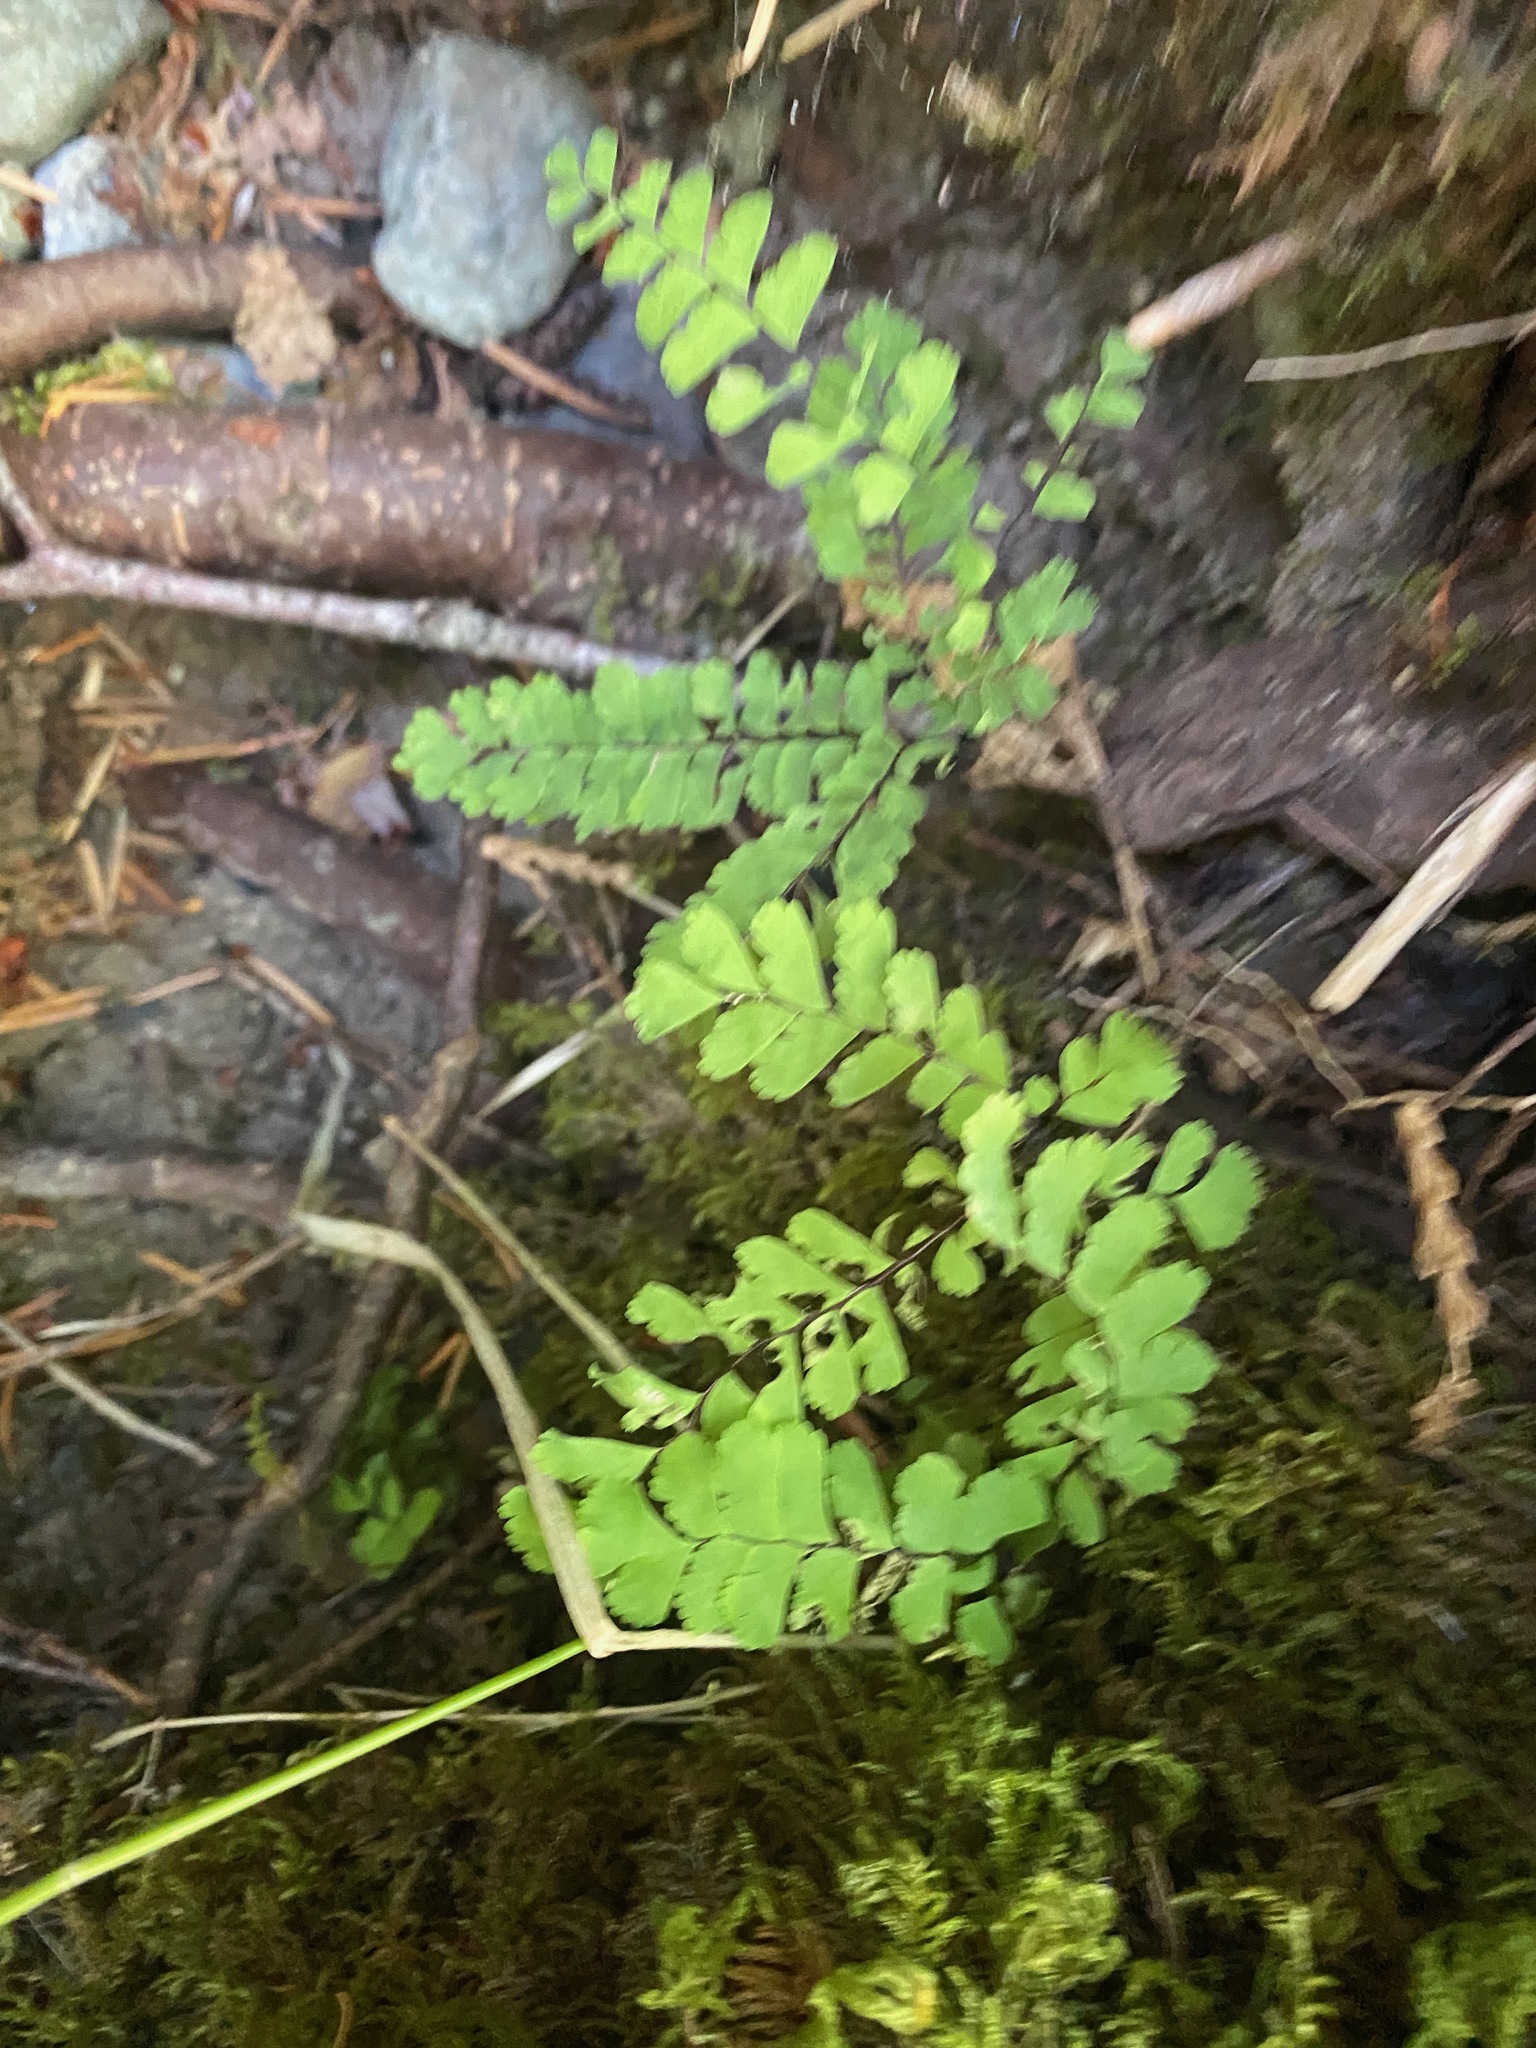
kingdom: Plantae
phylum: Tracheophyta
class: Polypodiopsida
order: Polypodiales
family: Pteridaceae
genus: Adiantum
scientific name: Adiantum aleuticum
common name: Aleutian maidenhair fern
